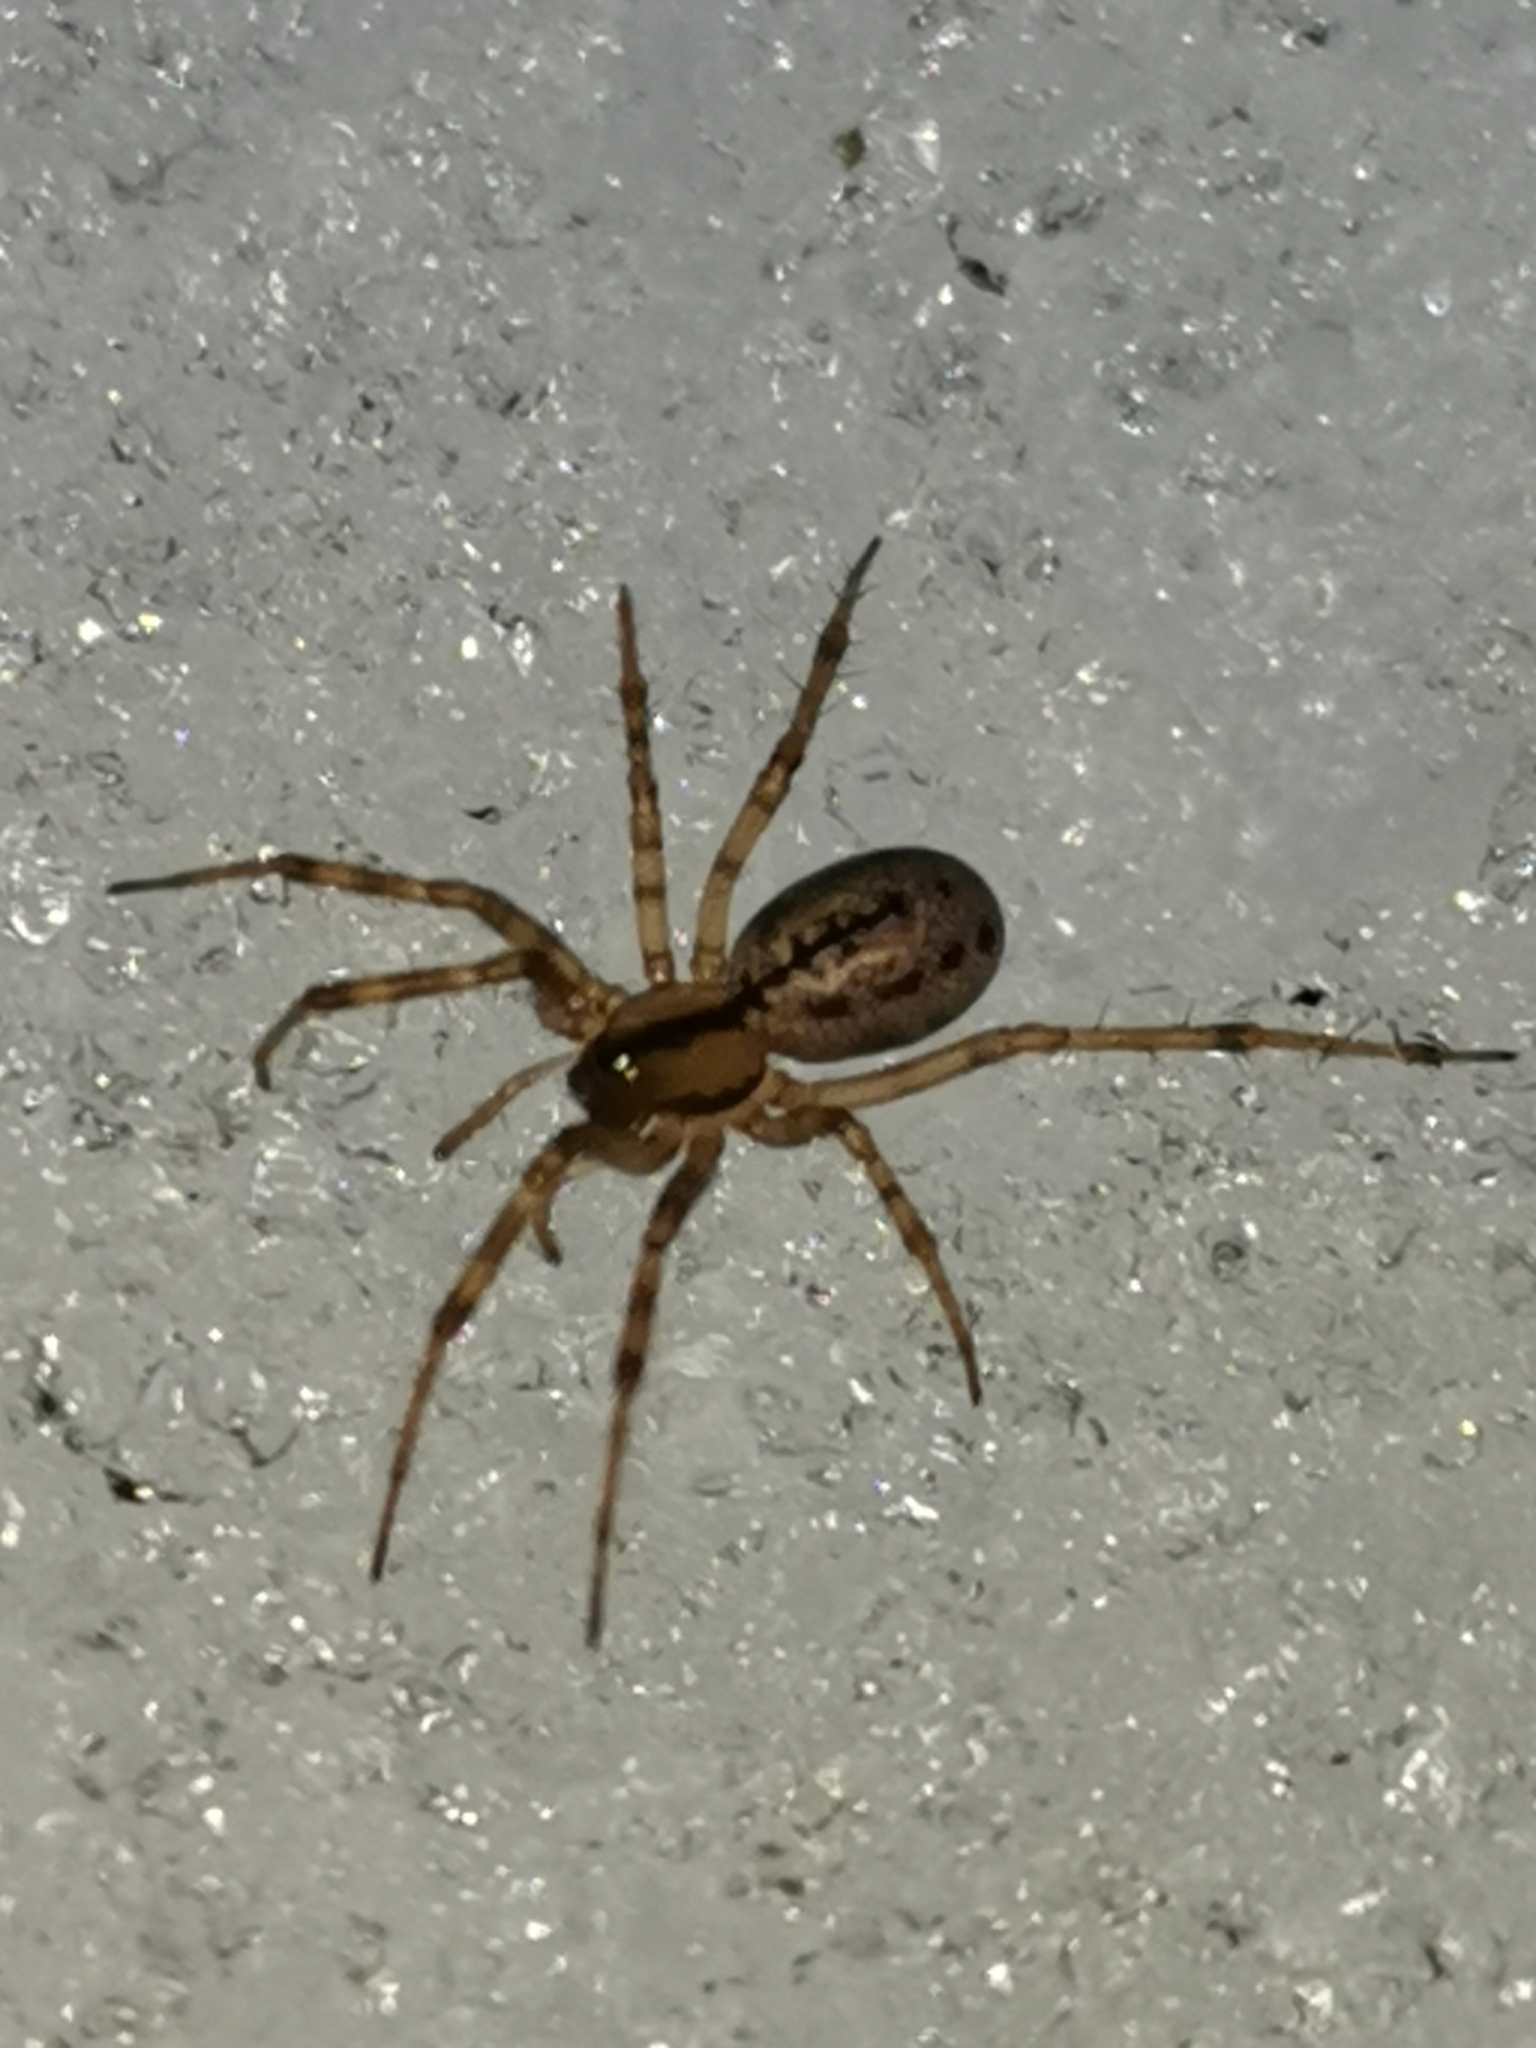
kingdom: Animalia
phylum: Arthropoda
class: Arachnida
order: Araneae
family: Linyphiidae
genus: Stemonyphantes
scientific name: Stemonyphantes lineatus
